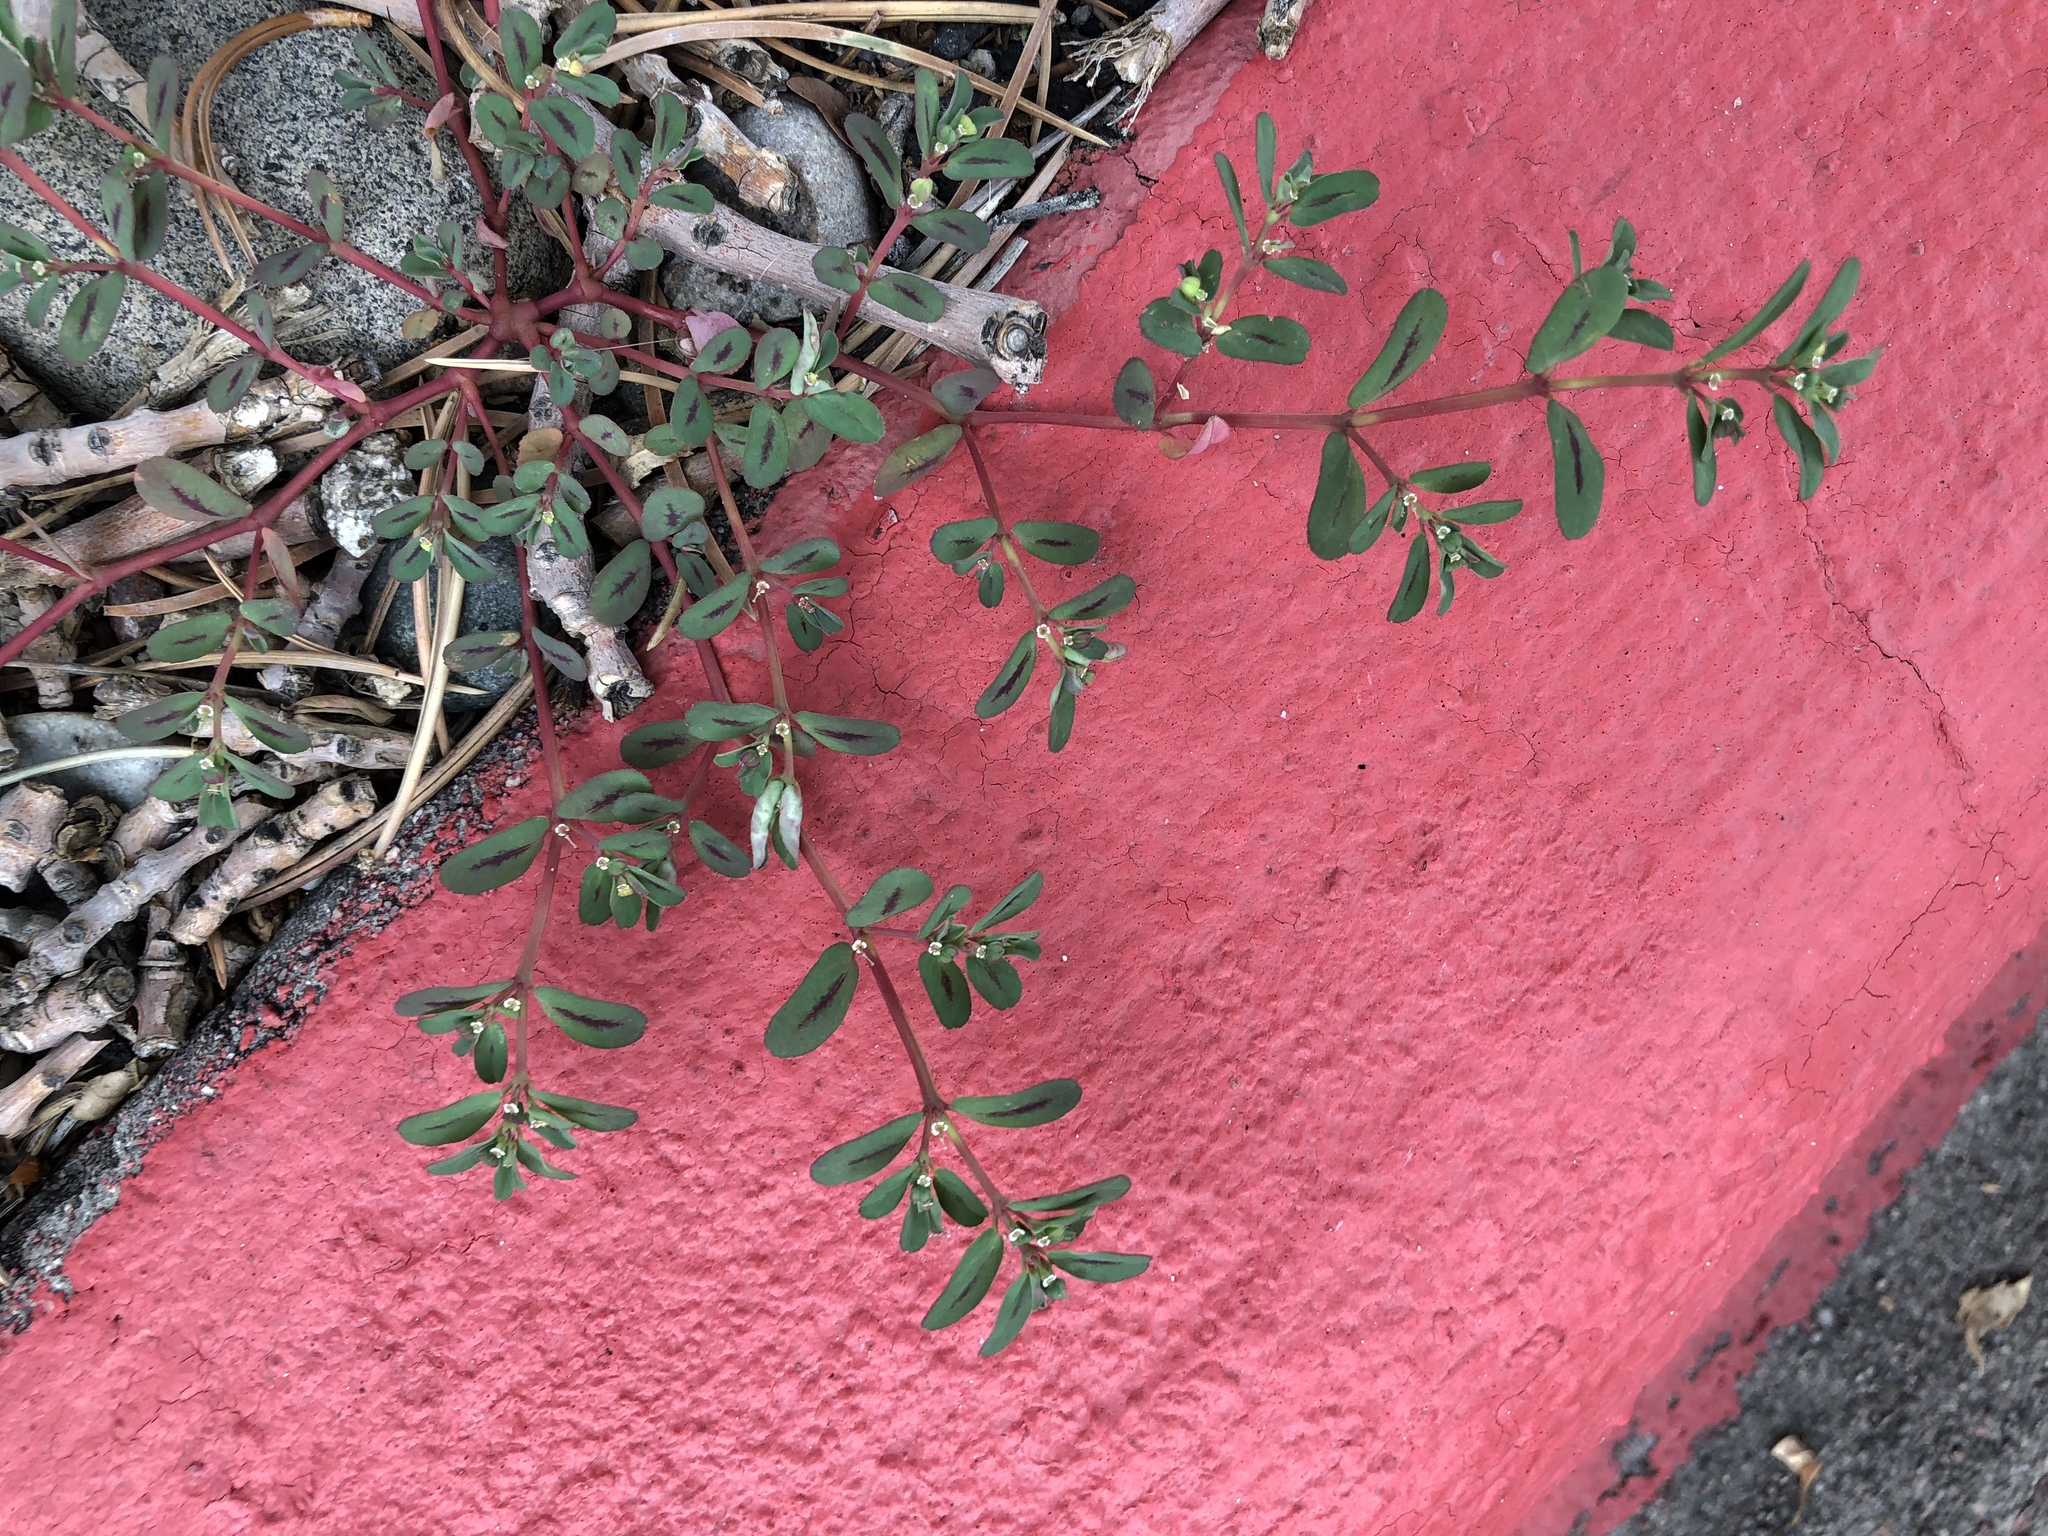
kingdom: Plantae
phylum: Tracheophyta
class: Magnoliopsida
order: Malpighiales
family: Euphorbiaceae
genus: Euphorbia
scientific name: Euphorbia serpillifolia
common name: Thyme-leaf spurge
